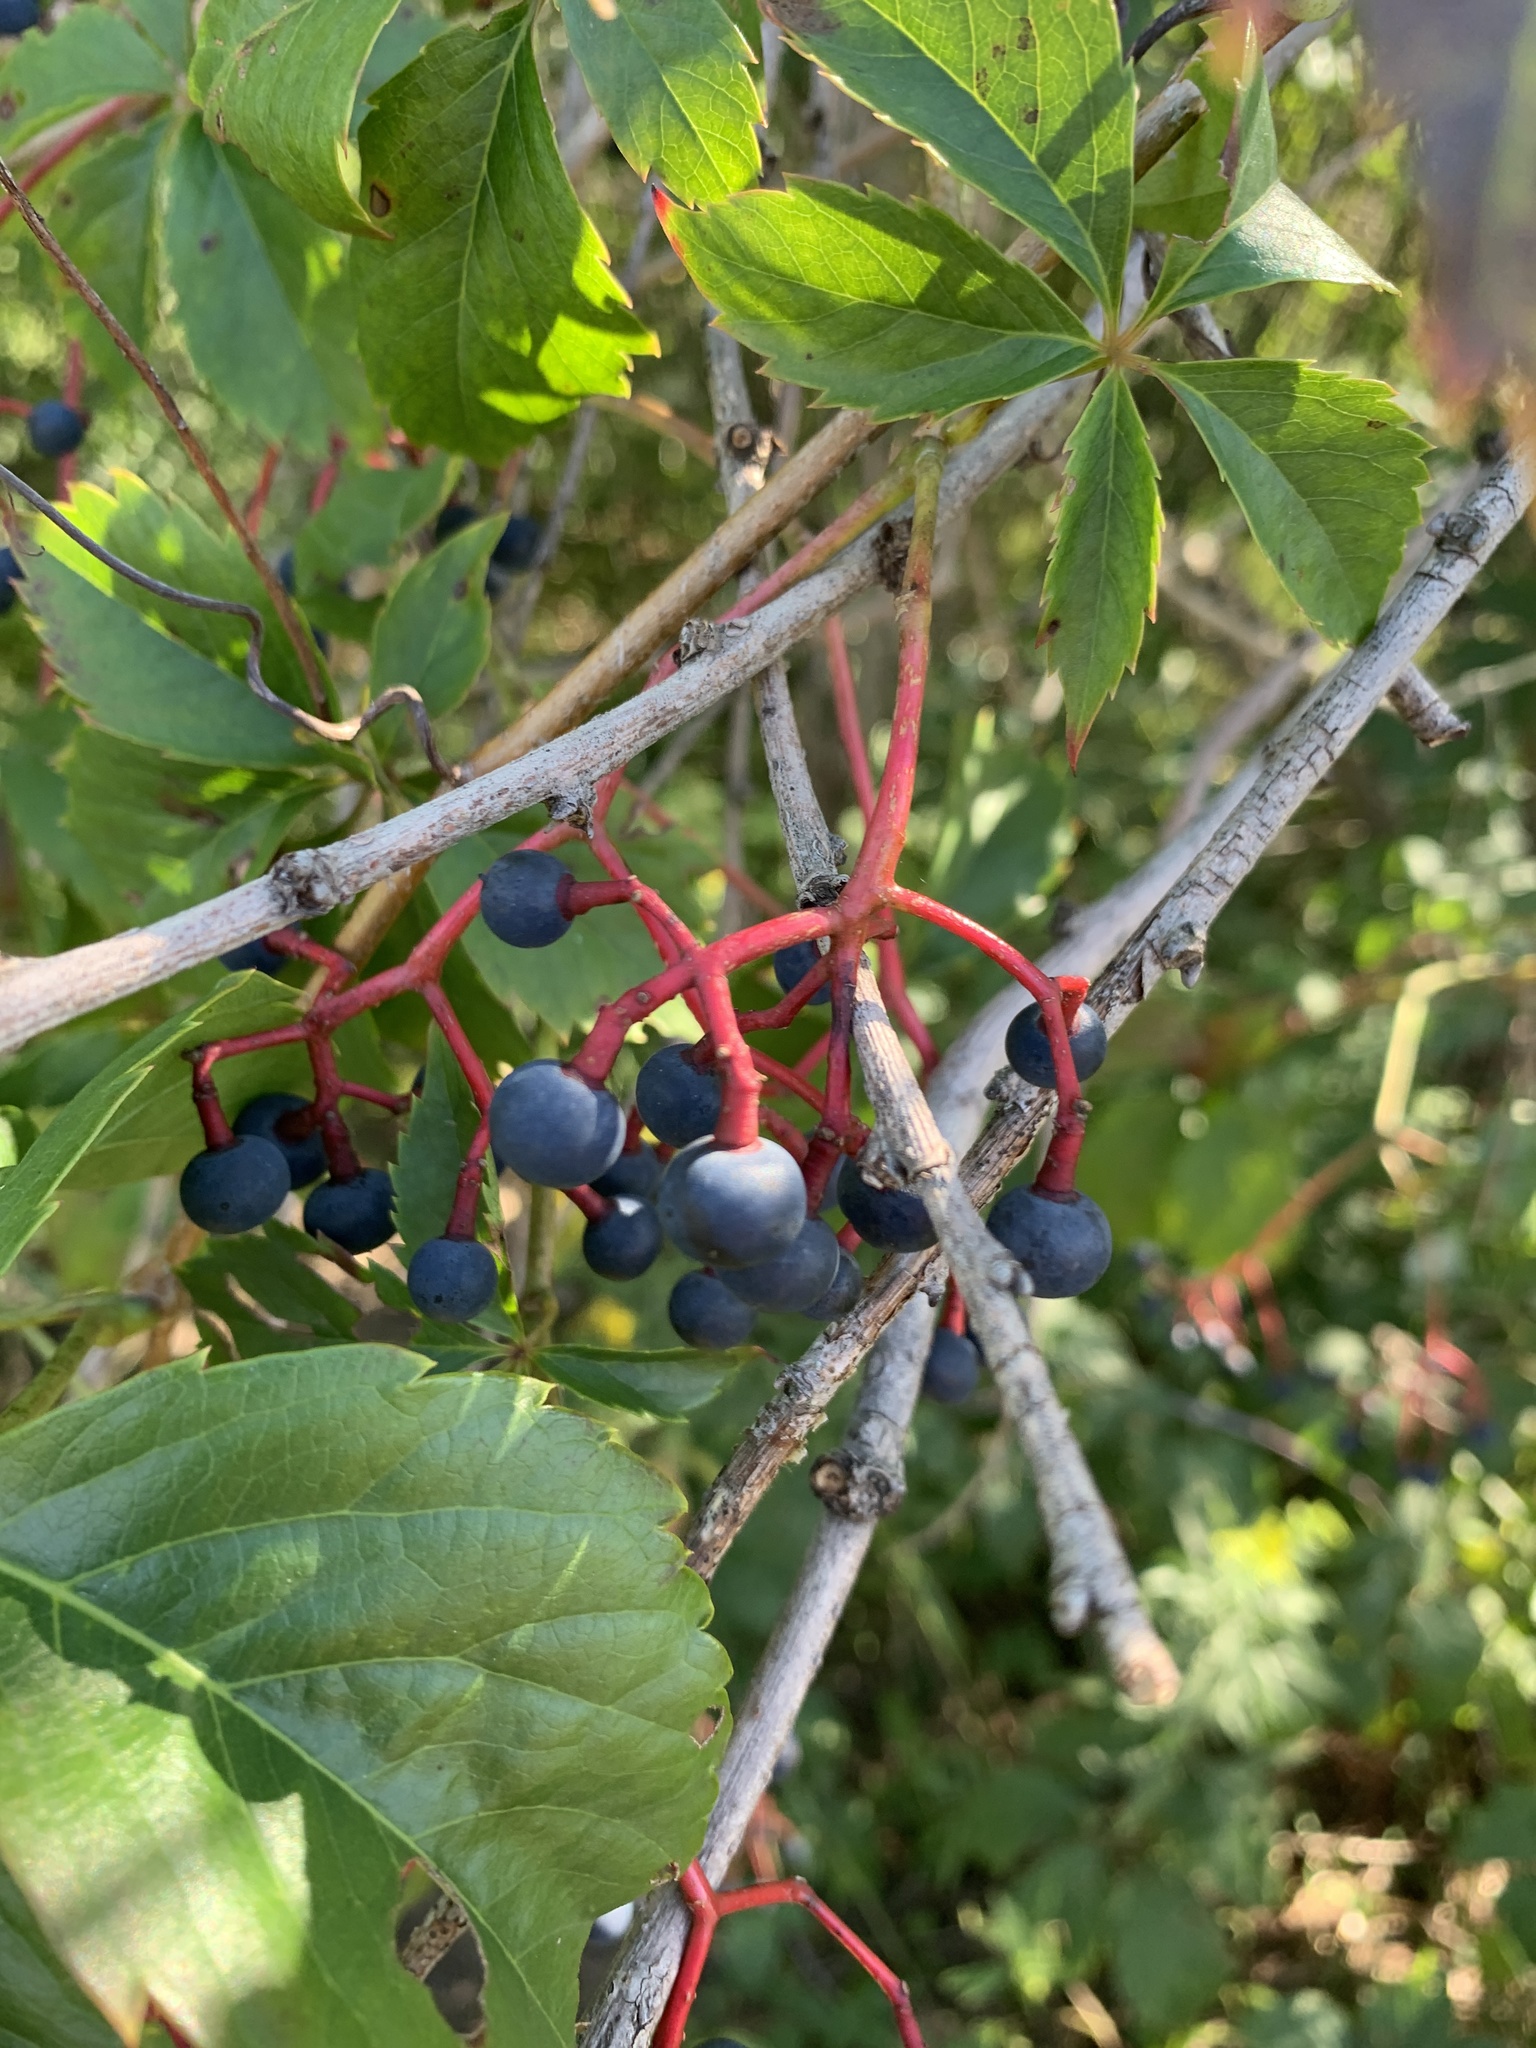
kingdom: Plantae
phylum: Tracheophyta
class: Magnoliopsida
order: Vitales
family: Vitaceae
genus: Parthenocissus
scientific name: Parthenocissus quinquefolia
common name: Virginia-creeper
